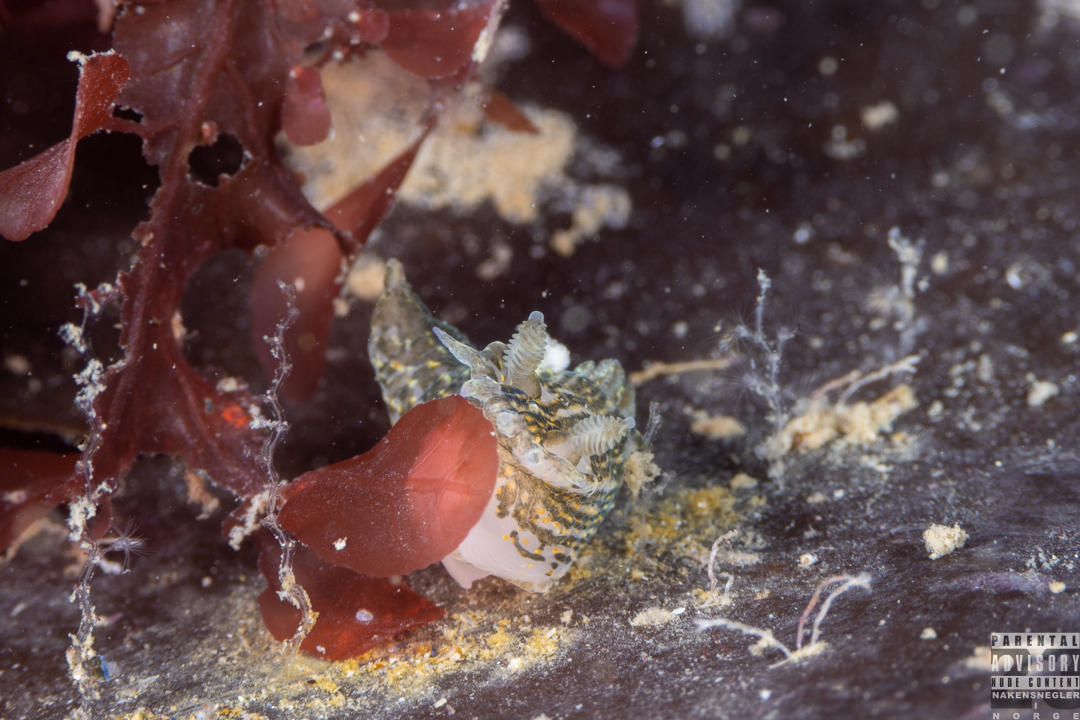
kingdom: Animalia
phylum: Mollusca
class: Gastropoda
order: Nudibranchia
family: Polyceridae
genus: Polycera
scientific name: Polycera quadrilineata
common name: Four-striped polycera
